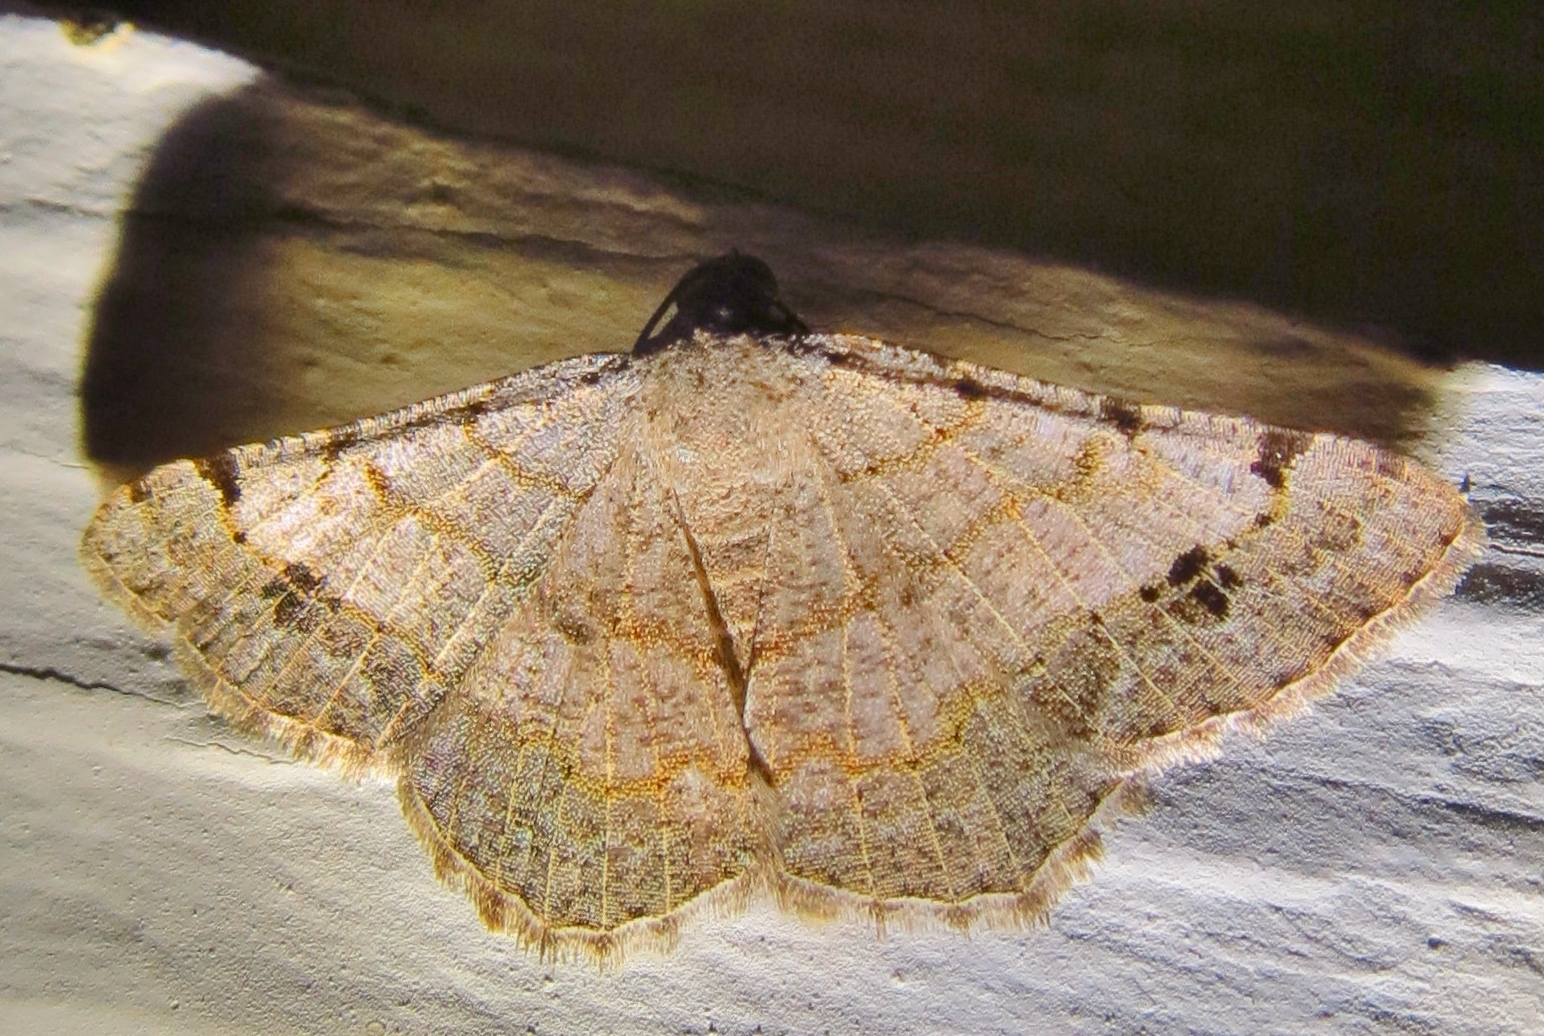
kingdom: Animalia
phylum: Arthropoda
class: Insecta
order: Lepidoptera
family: Geometridae
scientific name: Geometridae
